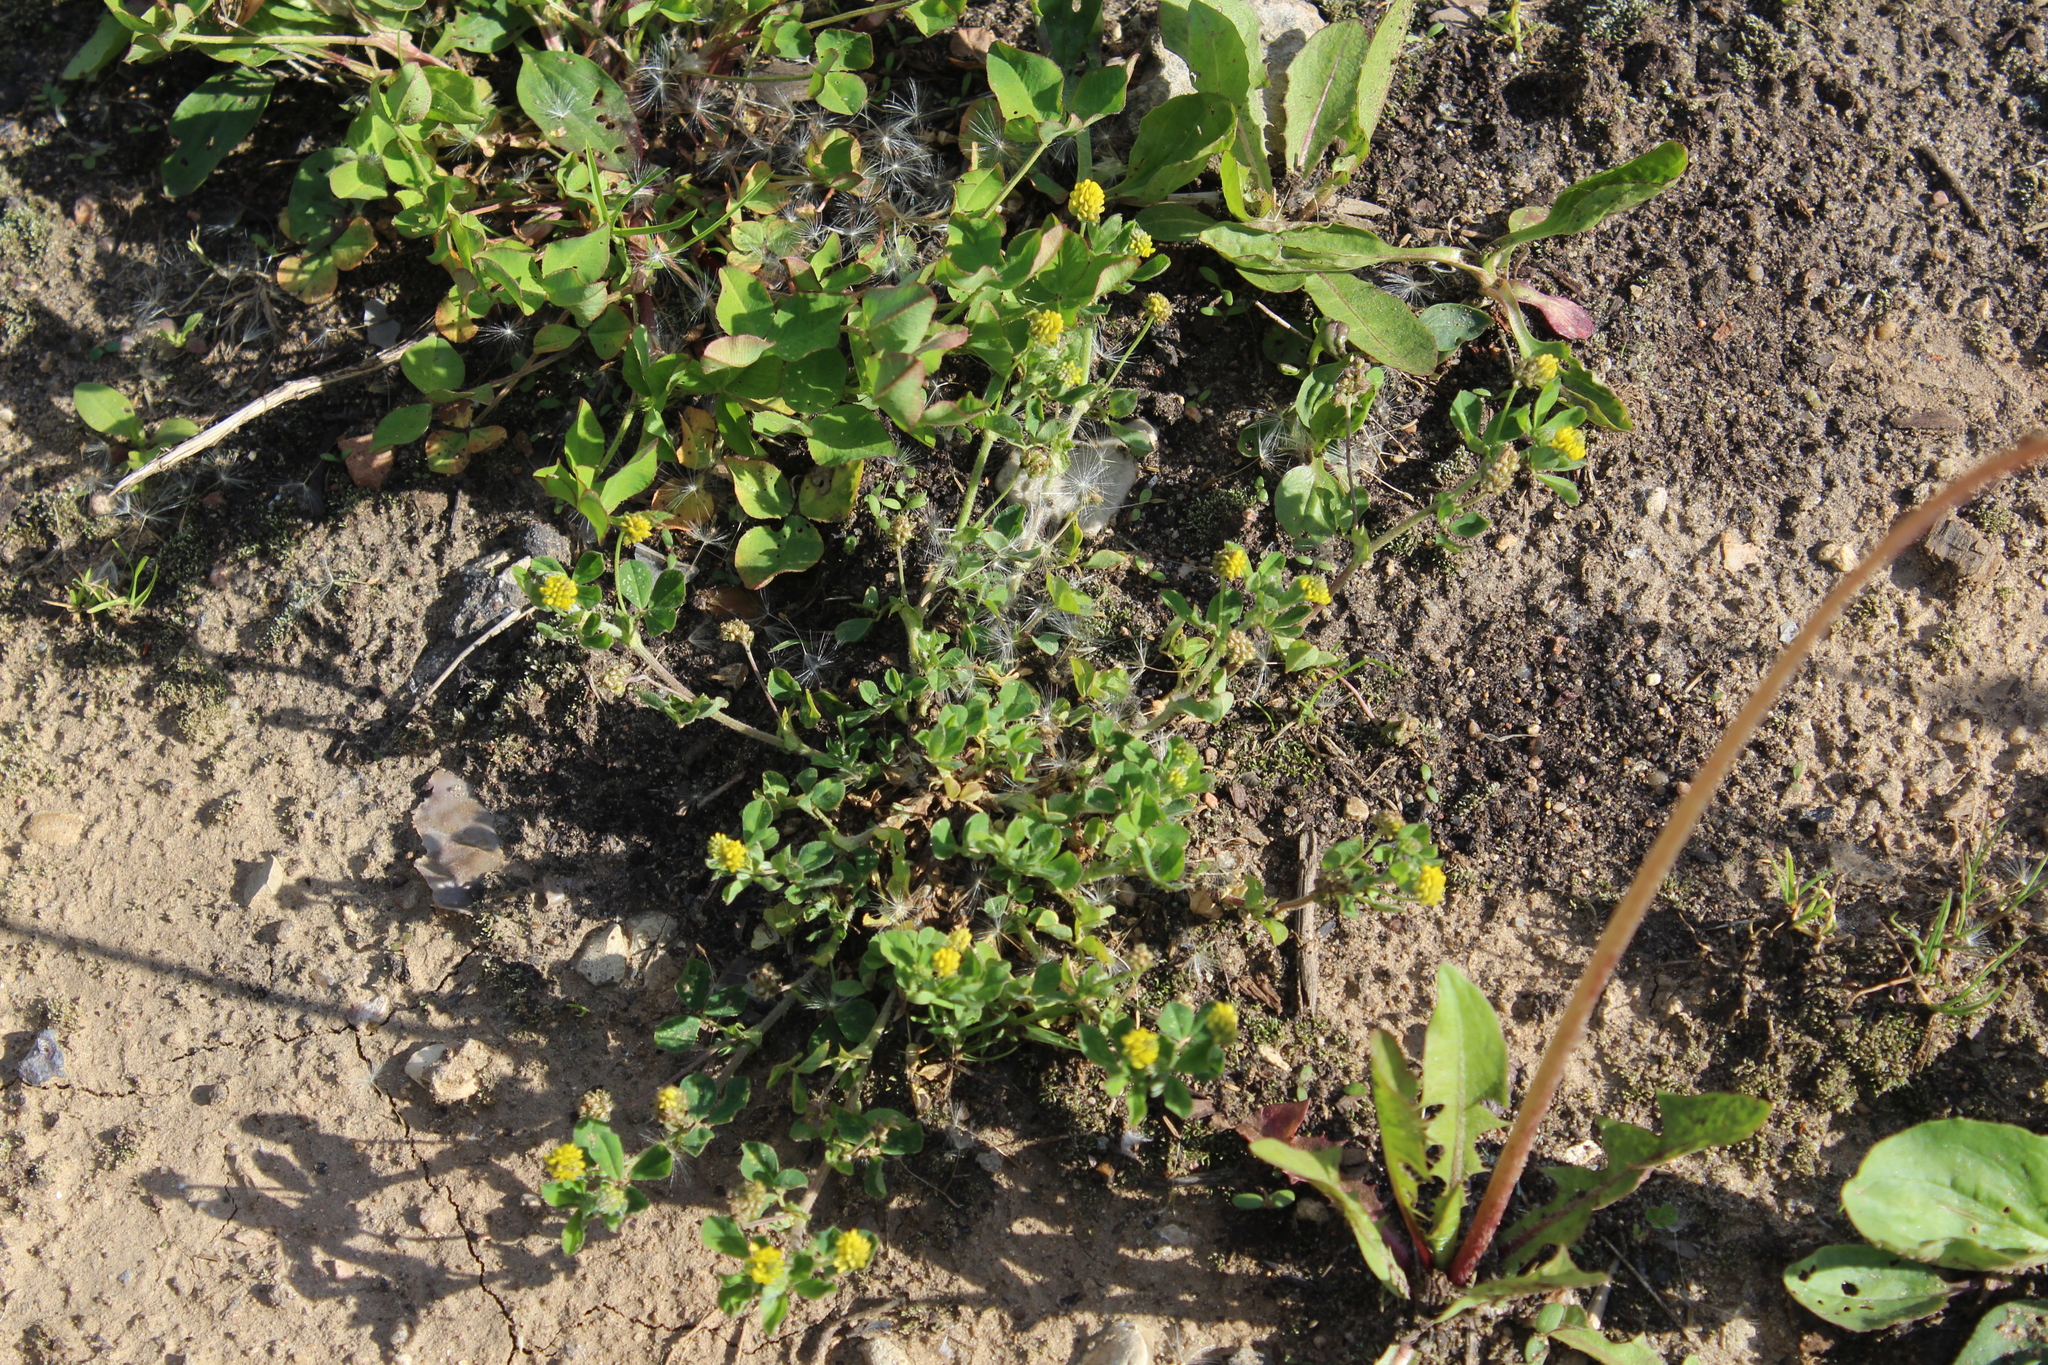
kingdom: Plantae
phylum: Tracheophyta
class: Magnoliopsida
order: Fabales
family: Fabaceae
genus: Medicago
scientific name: Medicago lupulina
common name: Black medick
